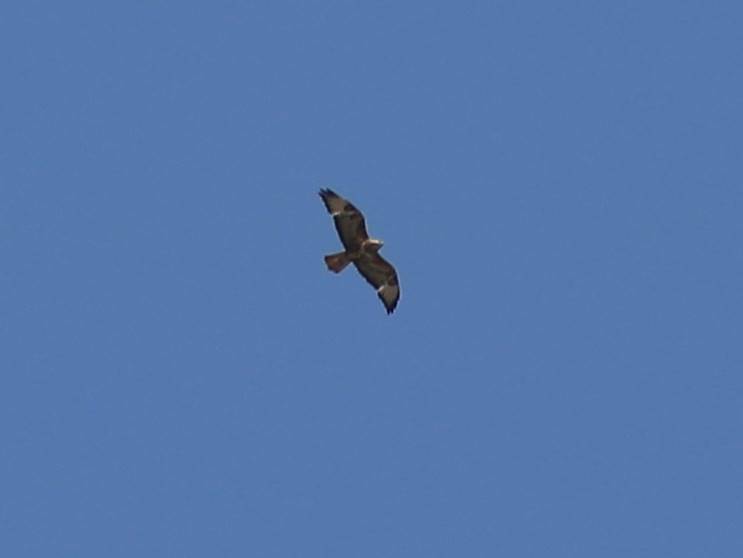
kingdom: Animalia
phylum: Chordata
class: Aves
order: Accipitriformes
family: Accipitridae
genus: Buteo
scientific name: Buteo rufinus
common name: Long-legged buzzard
